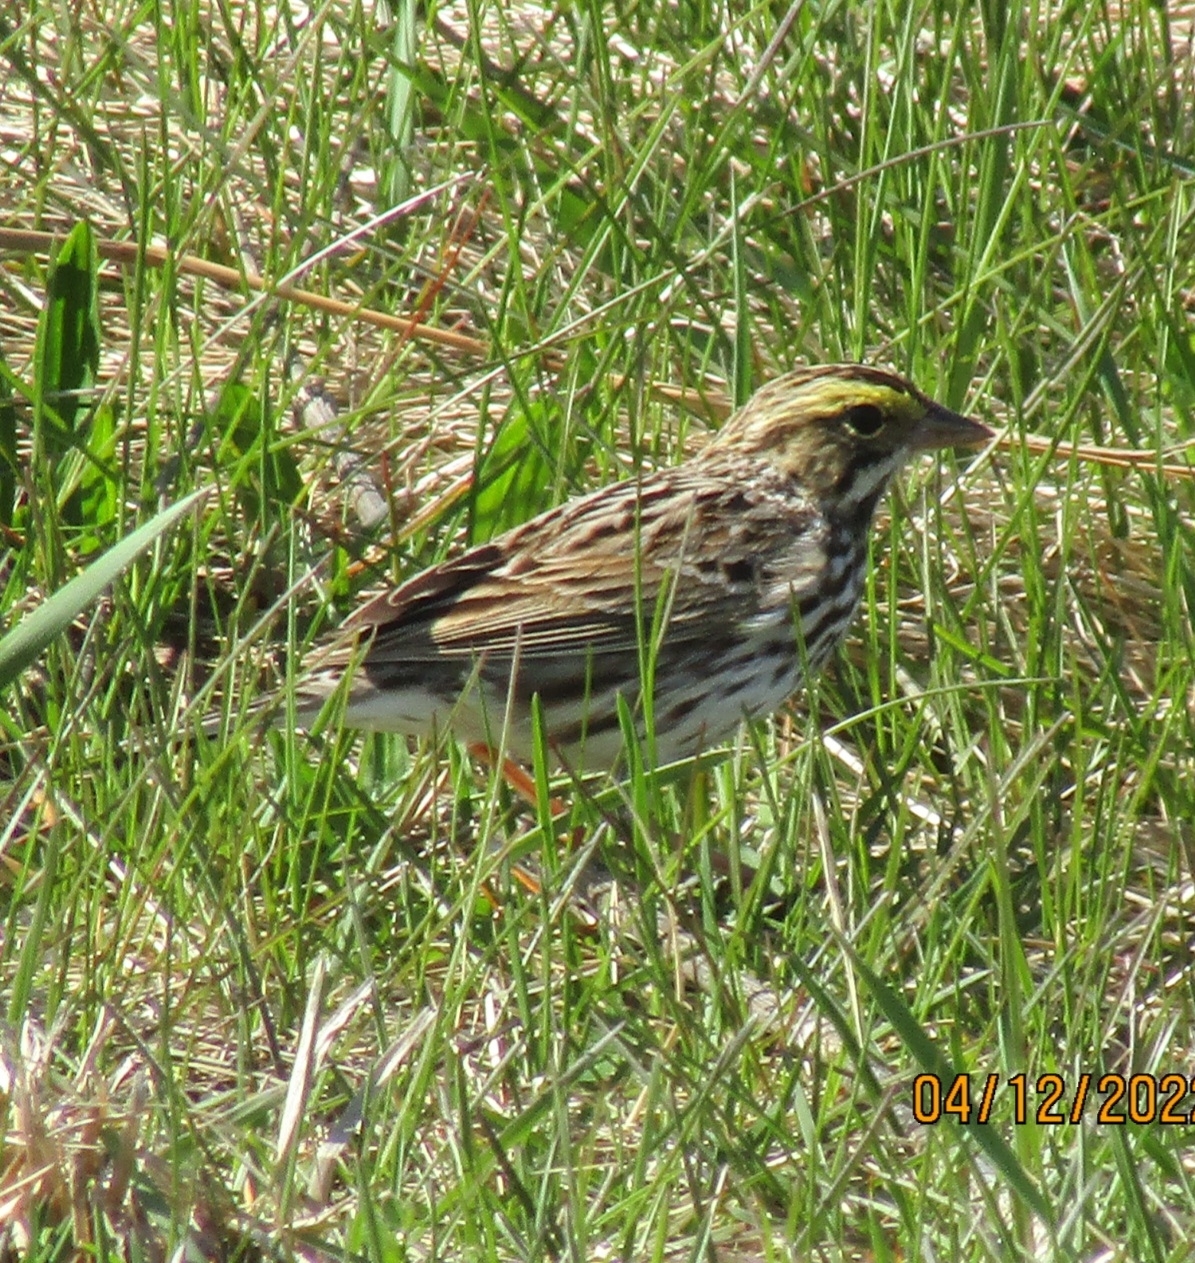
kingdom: Animalia
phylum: Chordata
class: Aves
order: Passeriformes
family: Passerellidae
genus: Passerculus
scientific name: Passerculus sandwichensis
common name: Savannah sparrow
